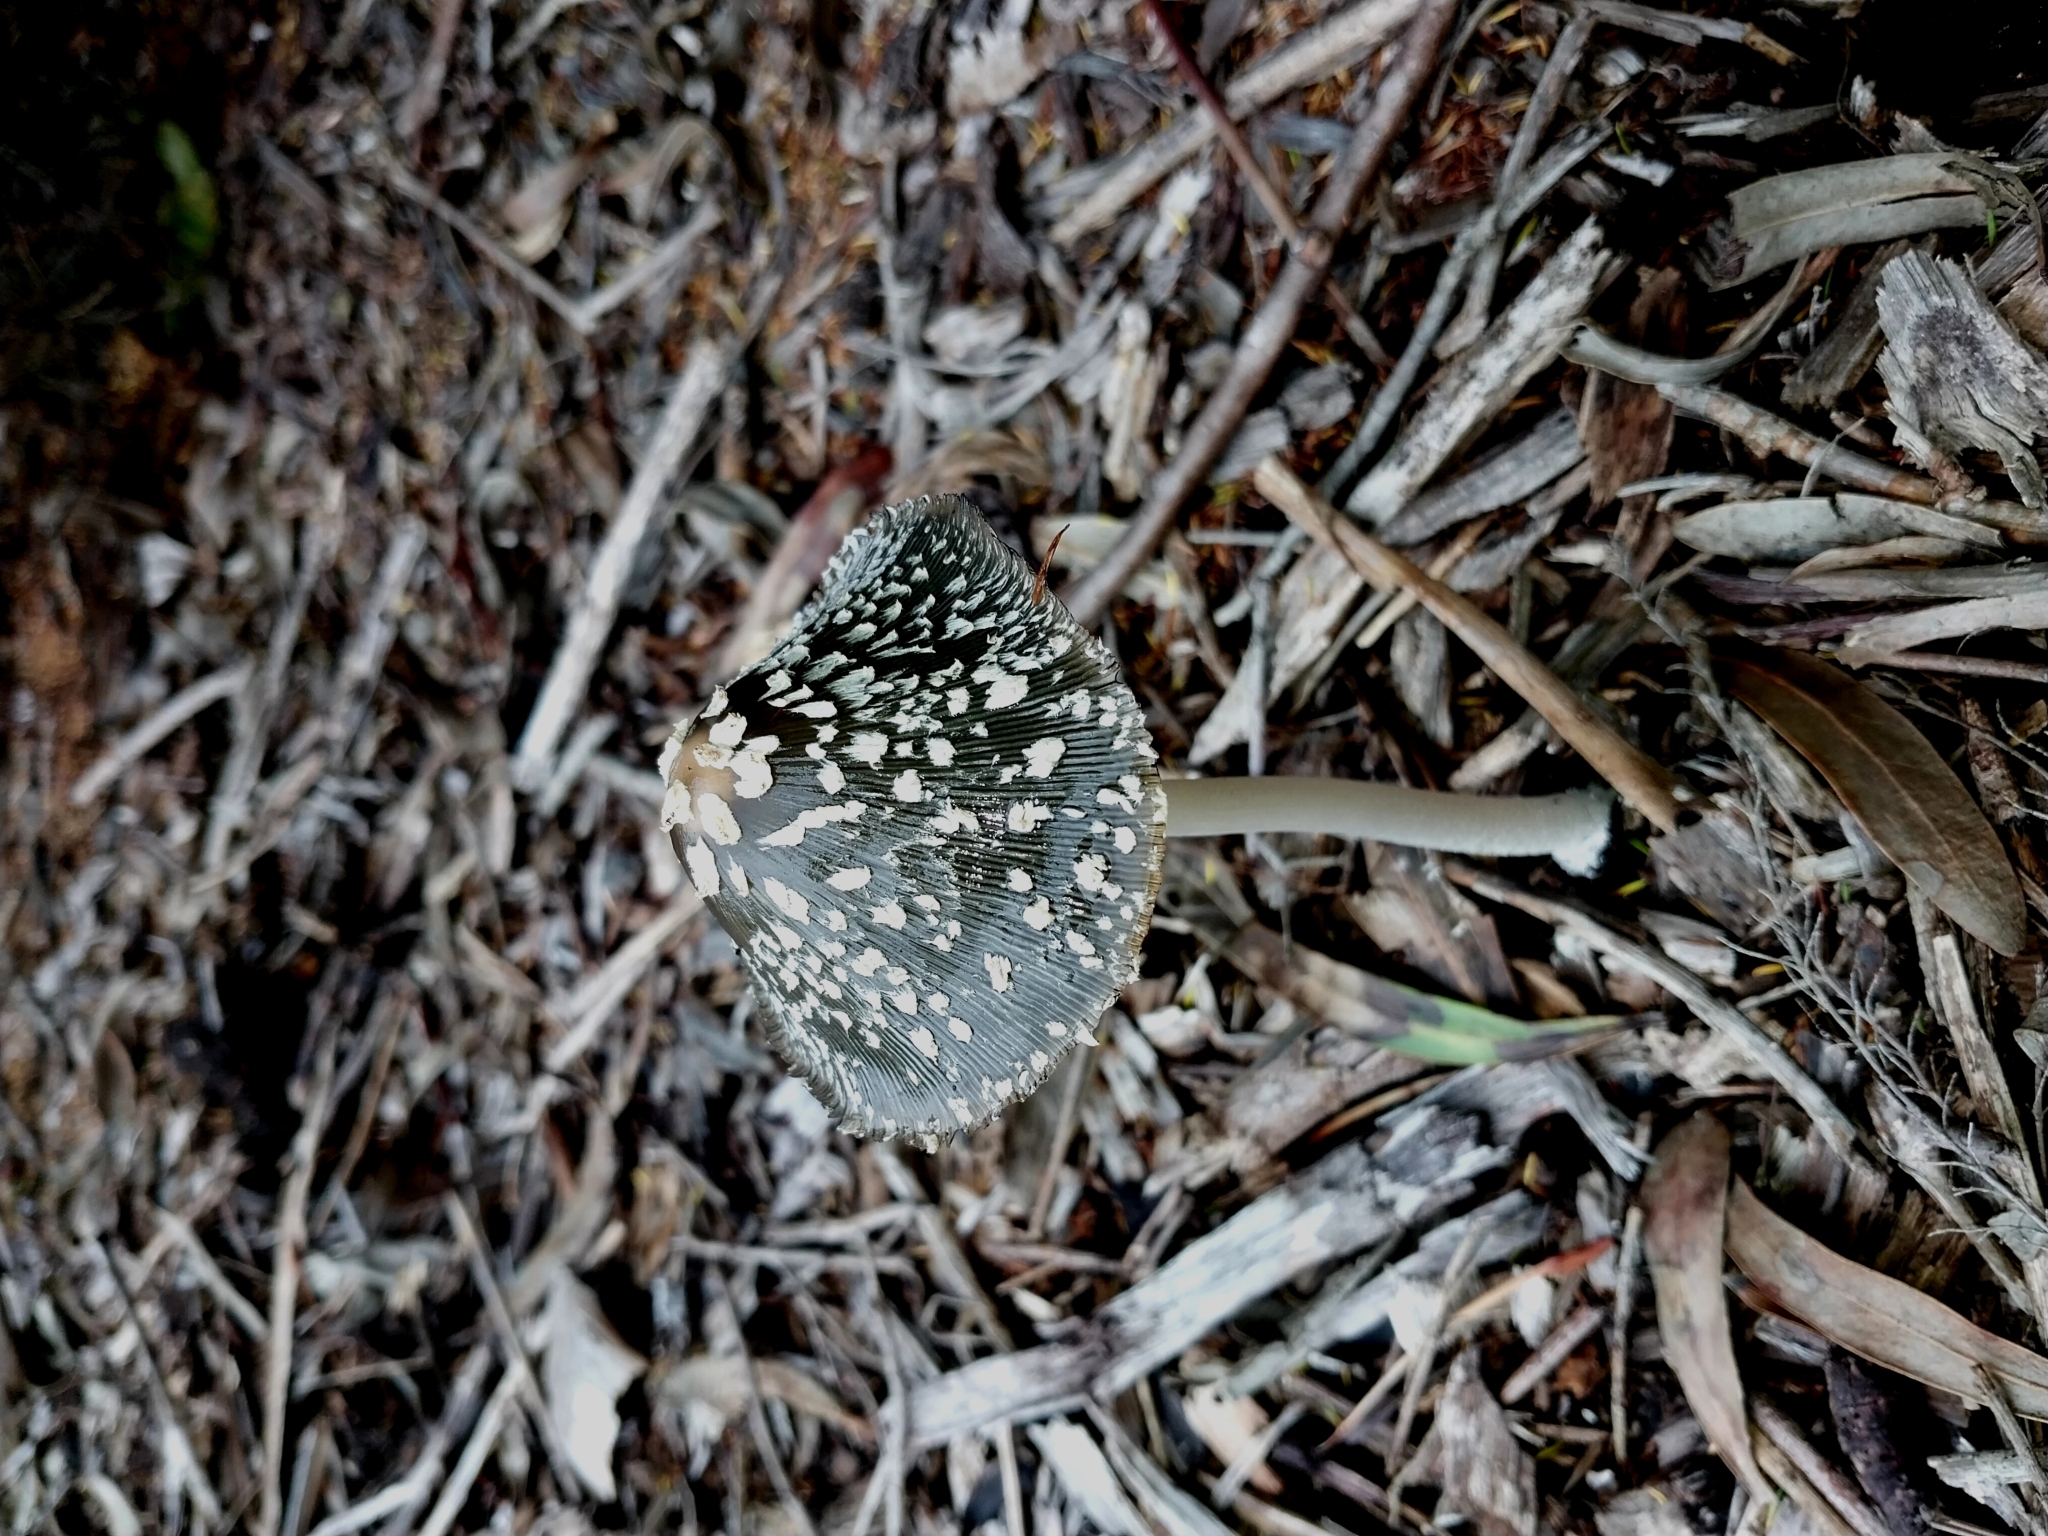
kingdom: Fungi
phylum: Basidiomycota
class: Agaricomycetes
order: Agaricales
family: Psathyrellaceae
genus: Coprinopsis
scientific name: Coprinopsis picacea
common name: Magpie inkcap
